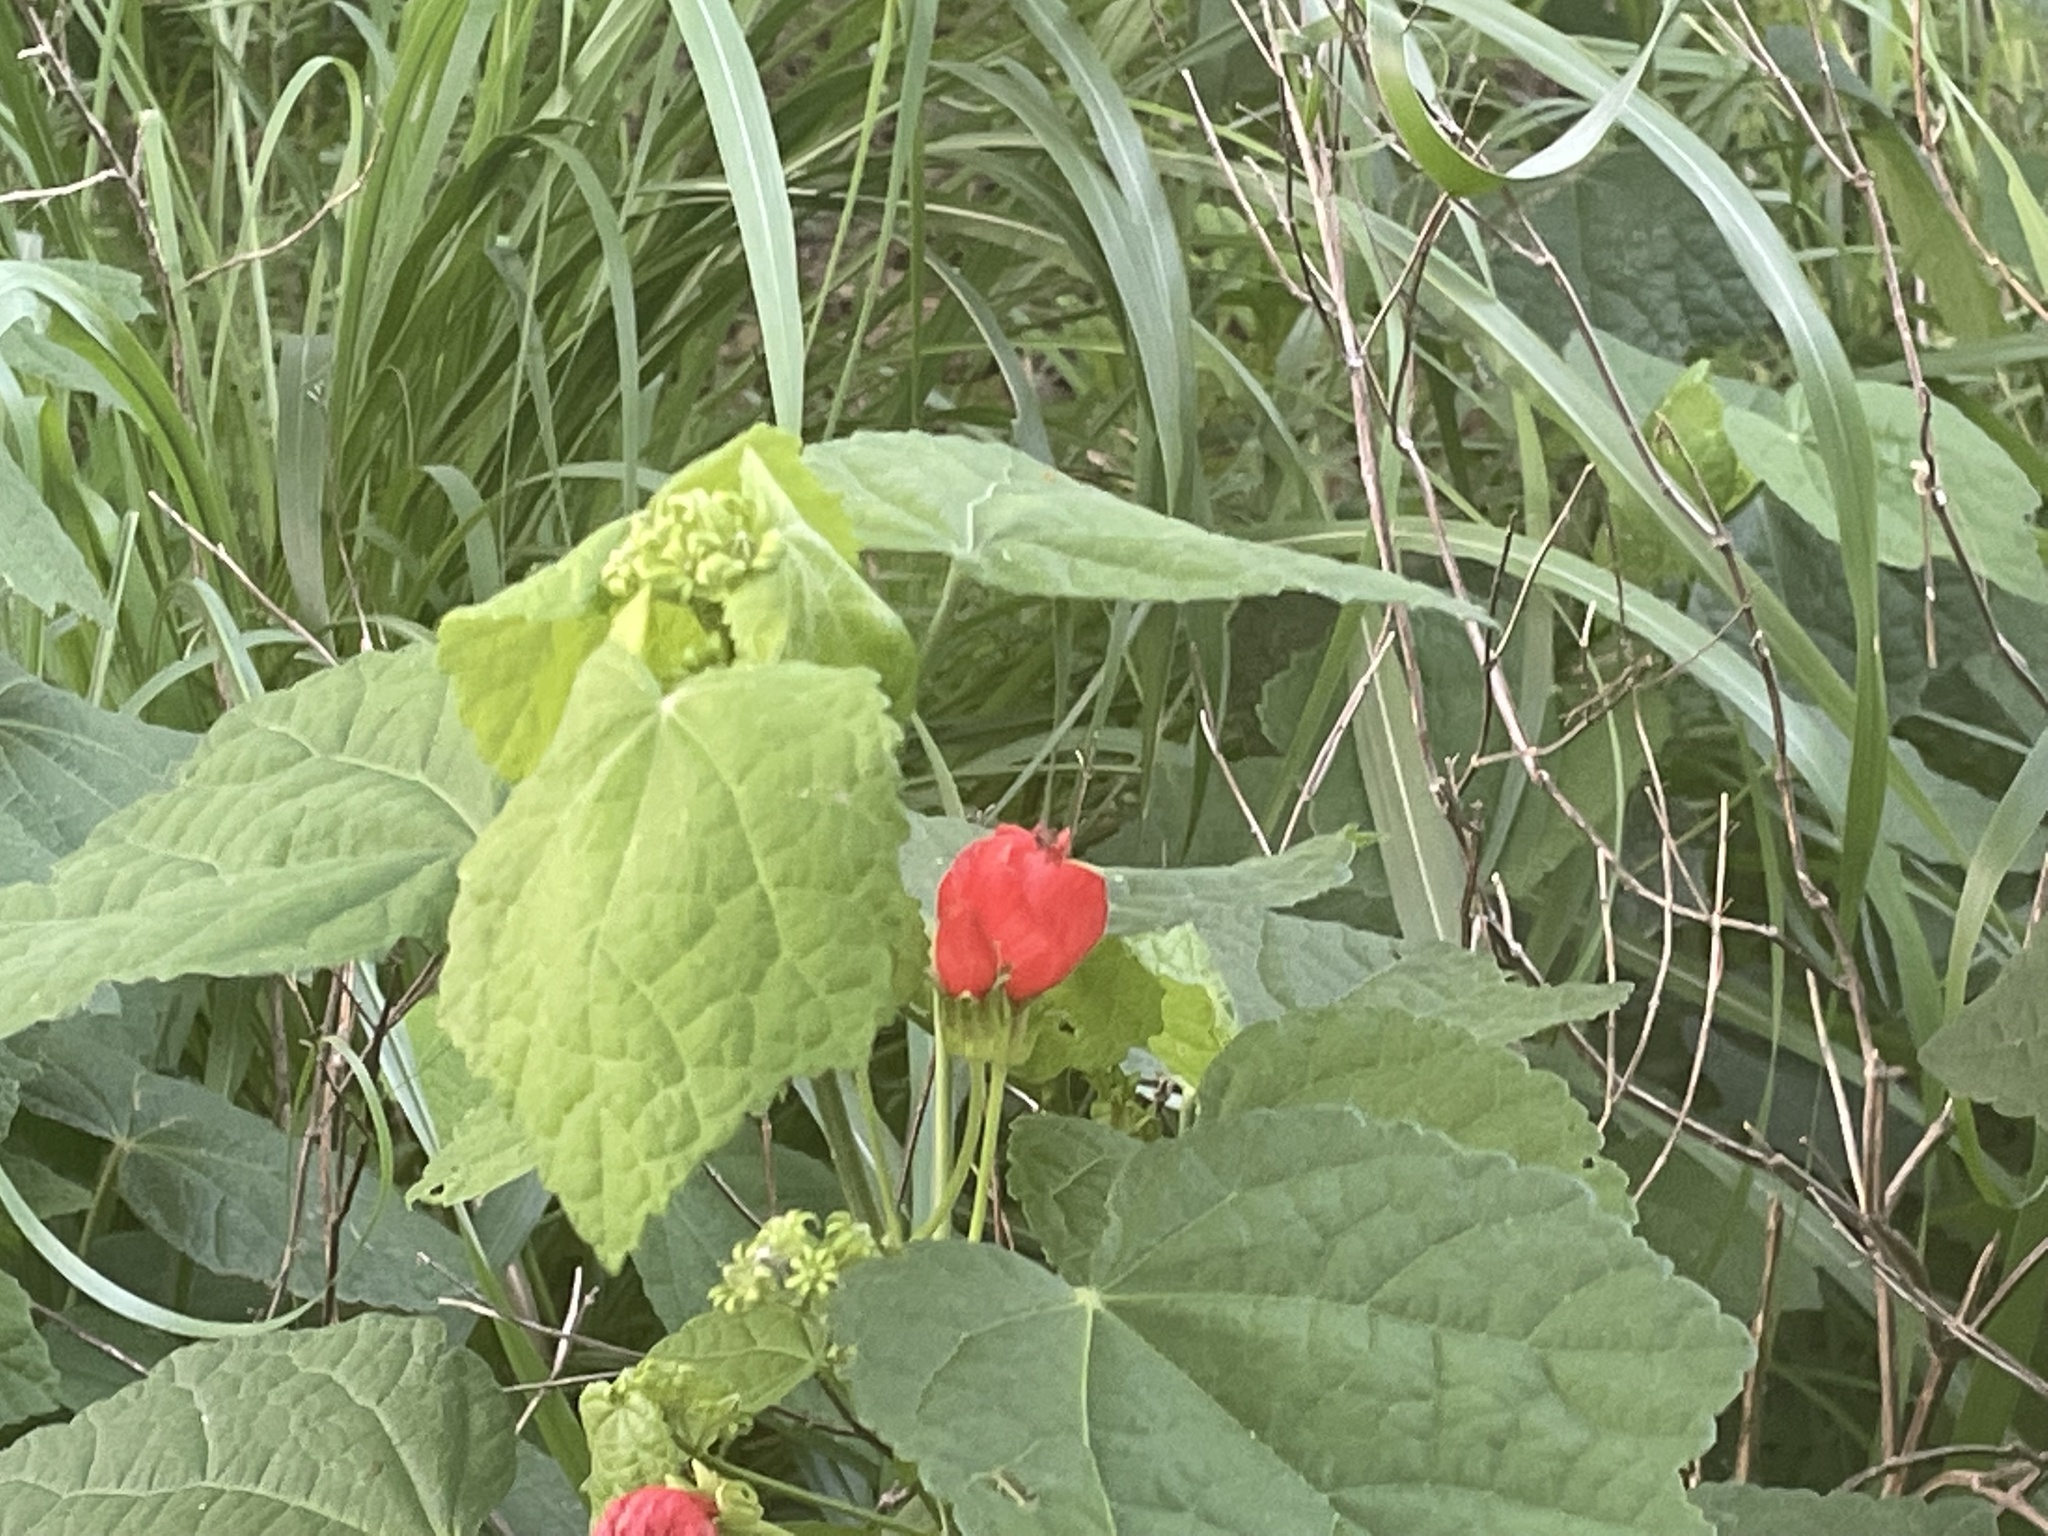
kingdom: Plantae
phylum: Tracheophyta
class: Magnoliopsida
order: Malvales
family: Malvaceae
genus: Malvaviscus
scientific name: Malvaviscus arboreus
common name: Wax mallow
